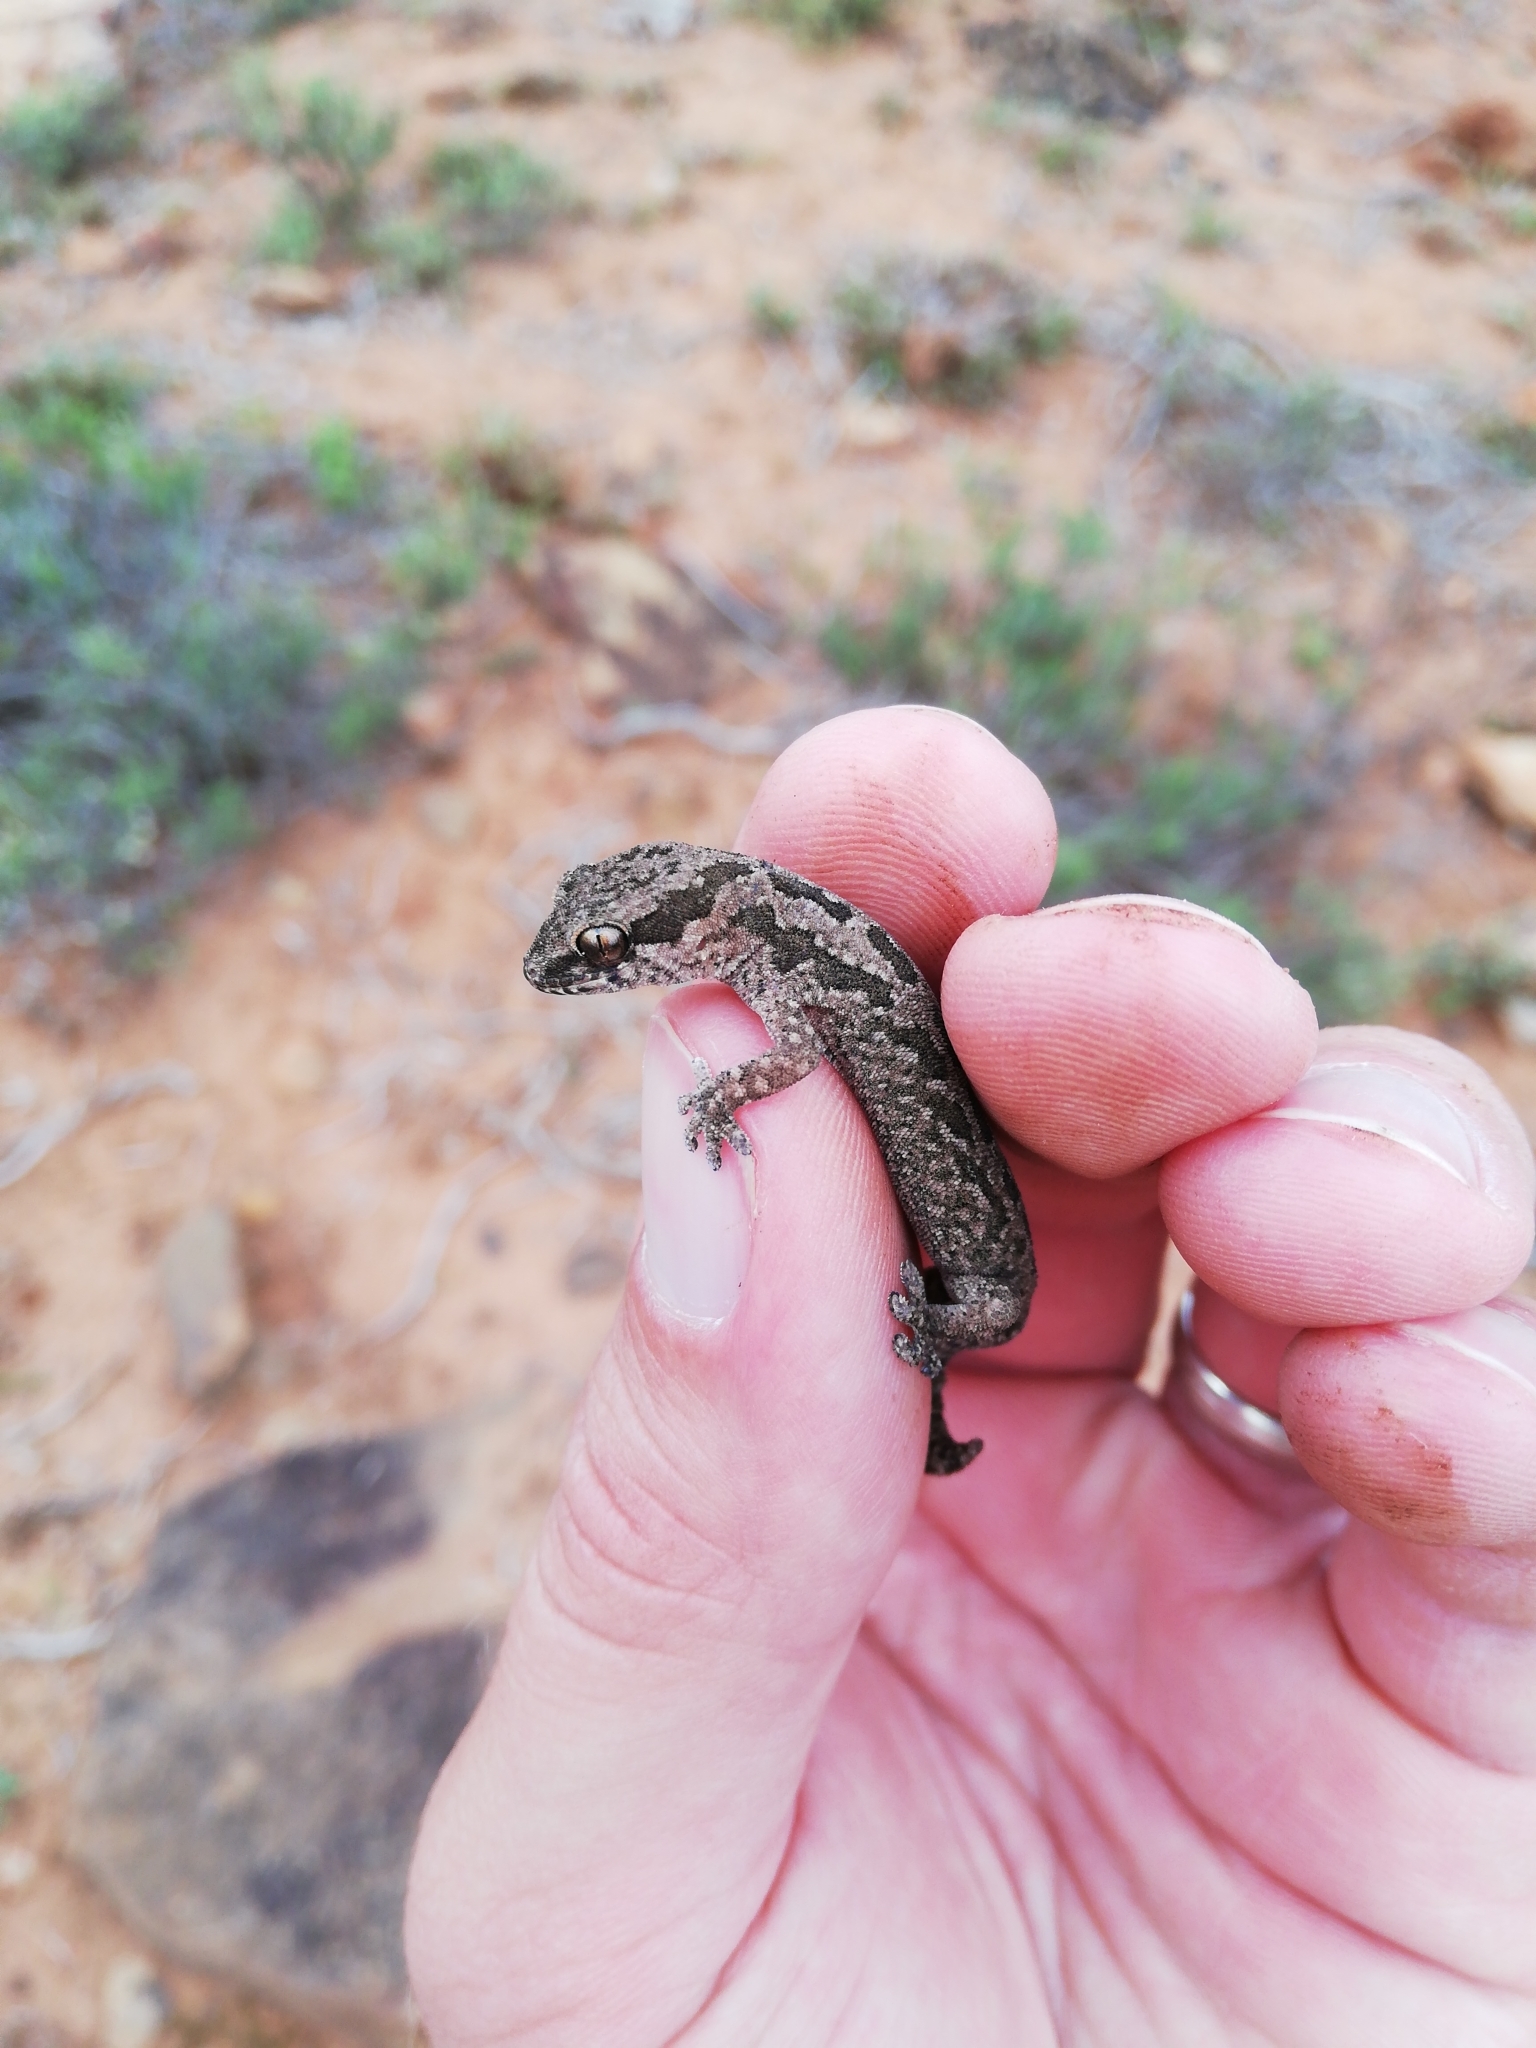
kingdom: Animalia
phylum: Chordata
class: Squamata
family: Gekkonidae
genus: Pachydactylus
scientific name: Pachydactylus maculatus
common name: Spotted thick-toed gecko
